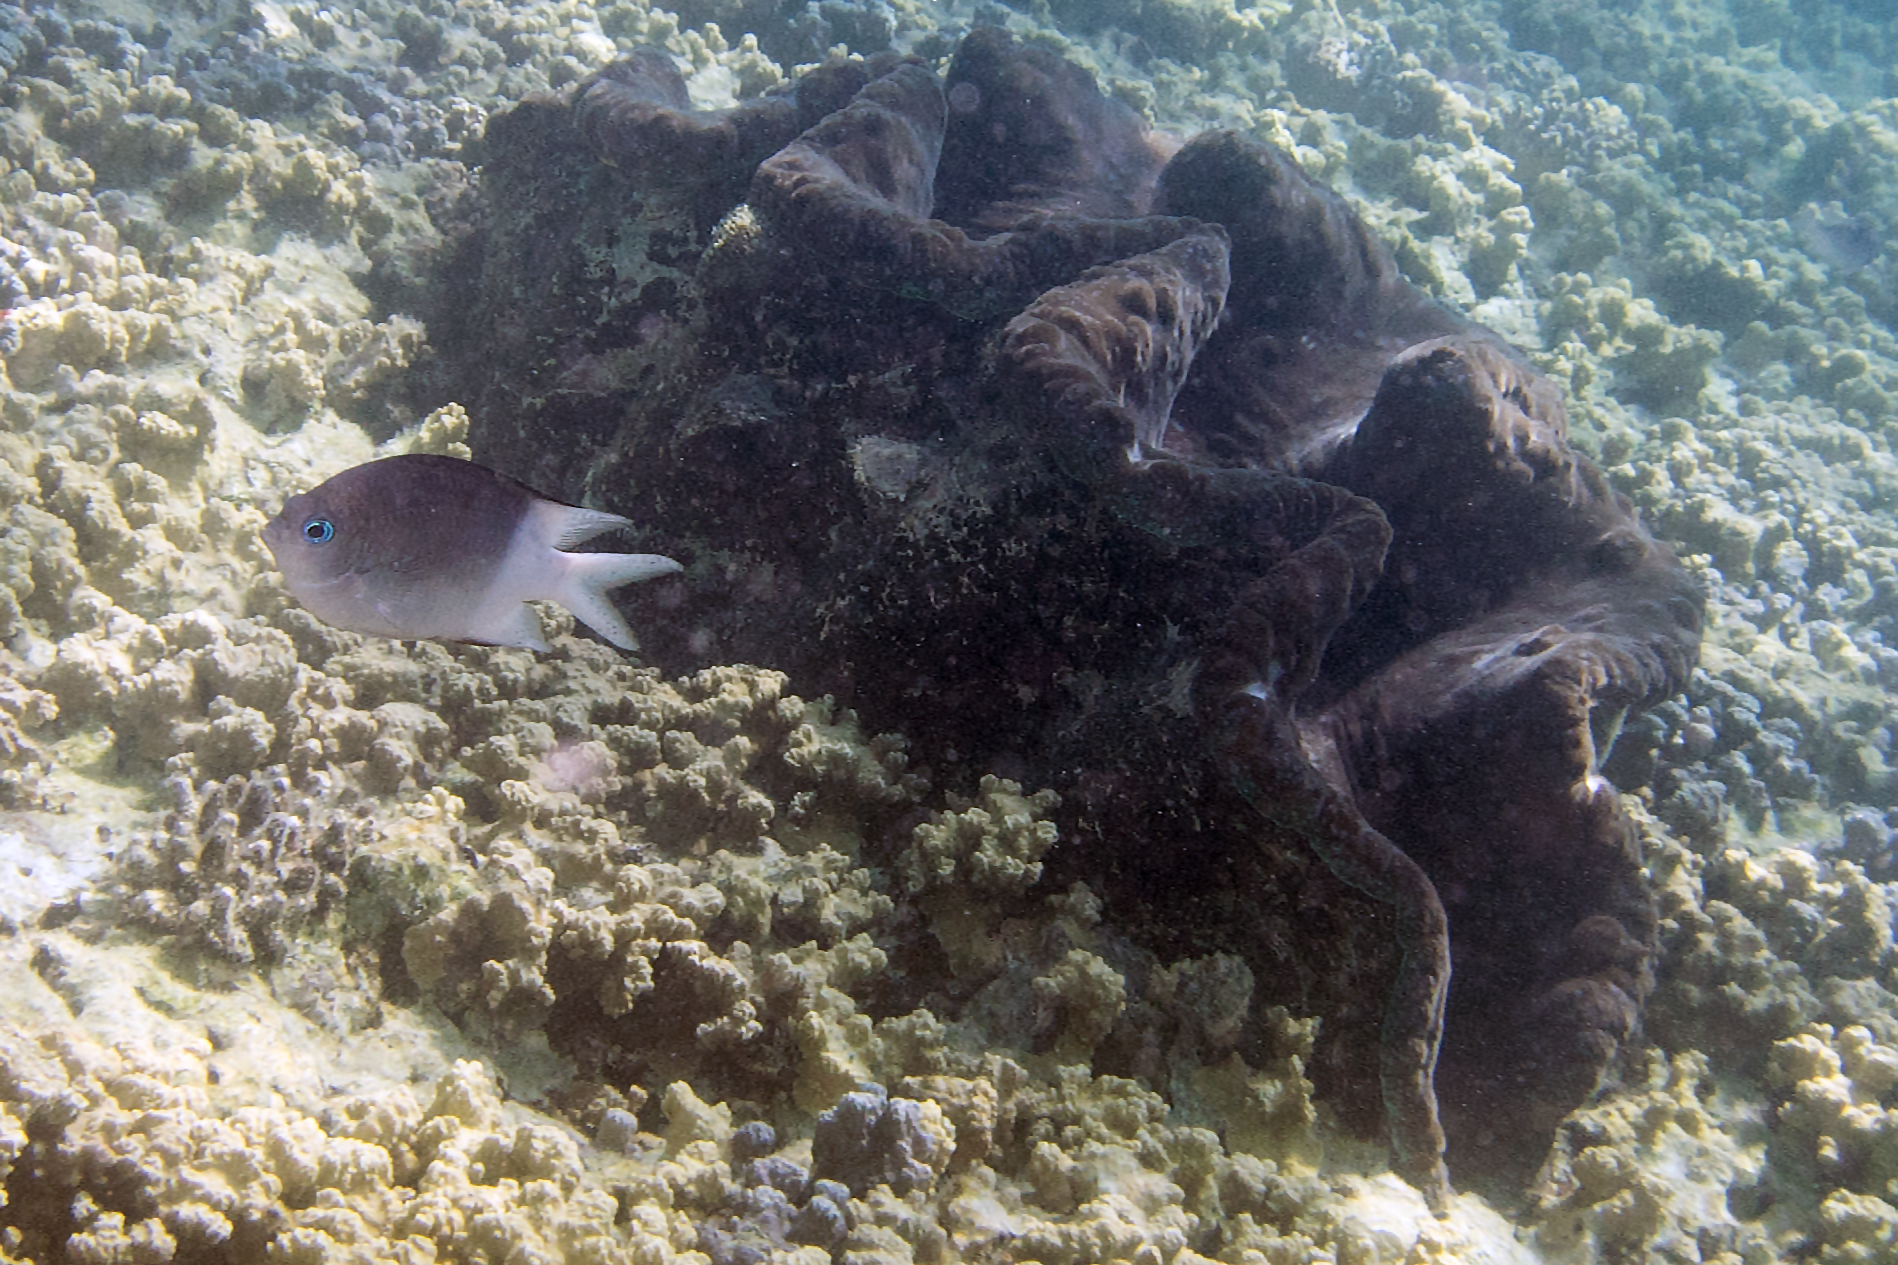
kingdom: Animalia
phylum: Chordata
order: Perciformes
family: Pomacentridae
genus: Acanthochromis
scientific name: Acanthochromis polyacanthus
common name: Spiny chromis
